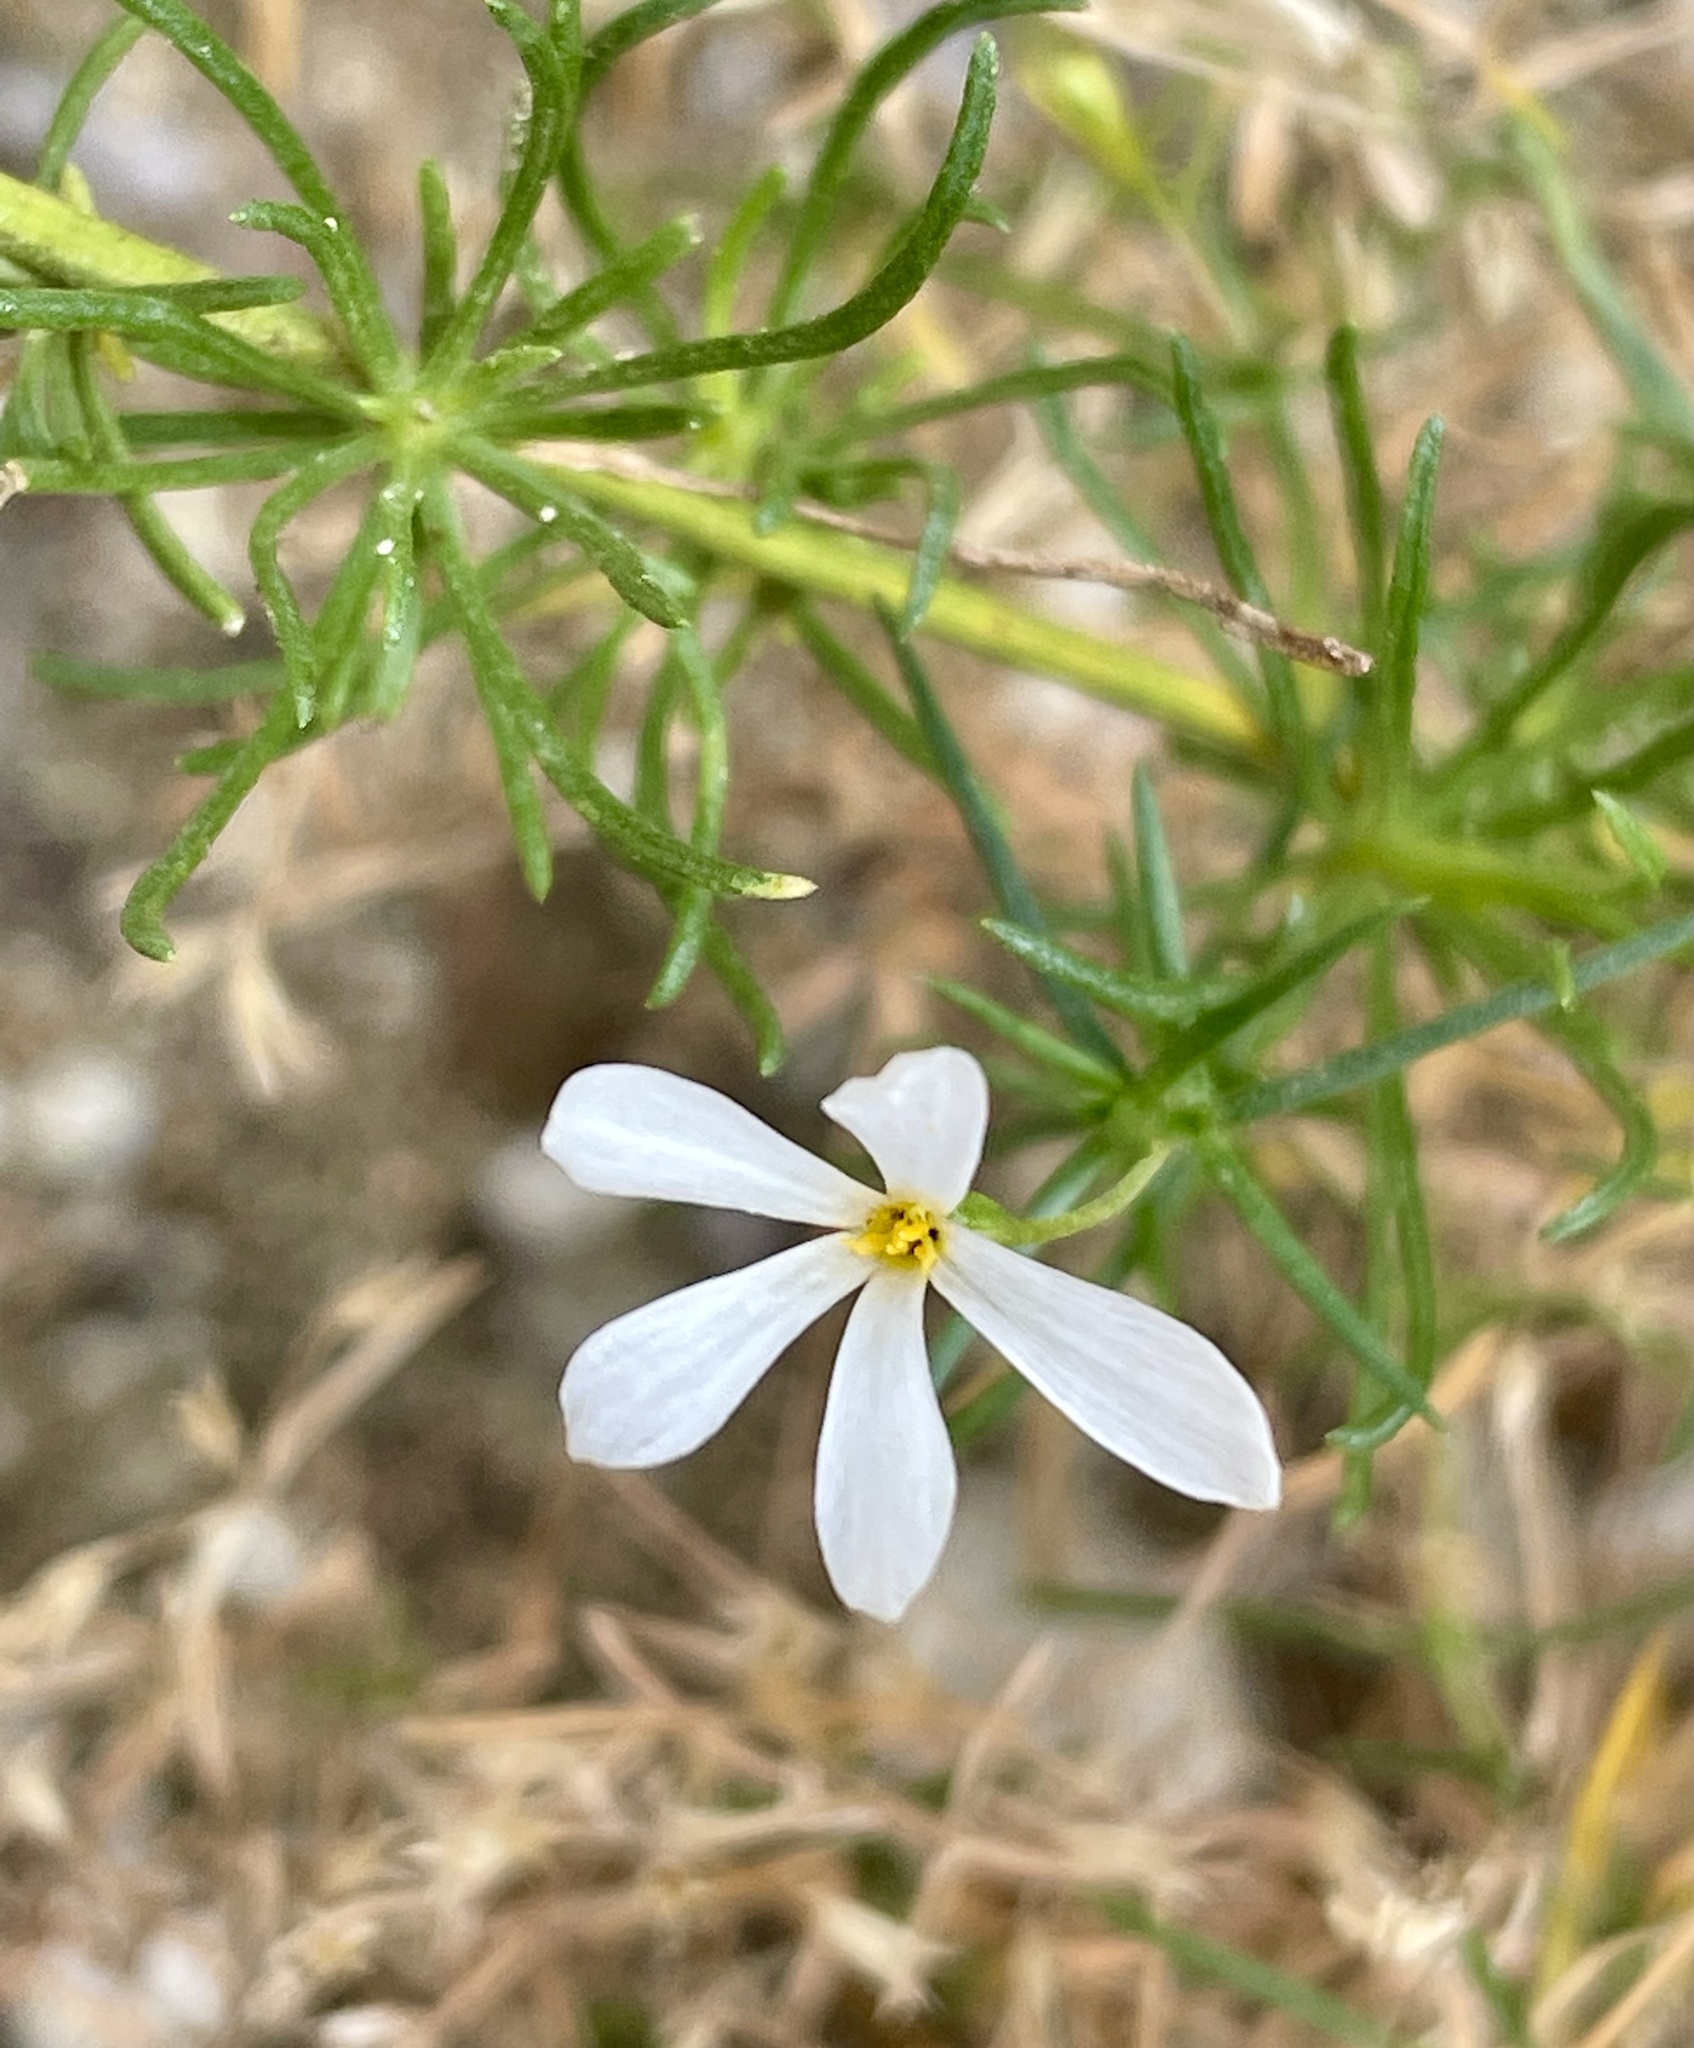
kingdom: Plantae
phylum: Tracheophyta
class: Magnoliopsida
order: Ericales
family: Polemoniaceae
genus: Leptosiphon
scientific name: Leptosiphon floribundum
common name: Many-flower linanthus
